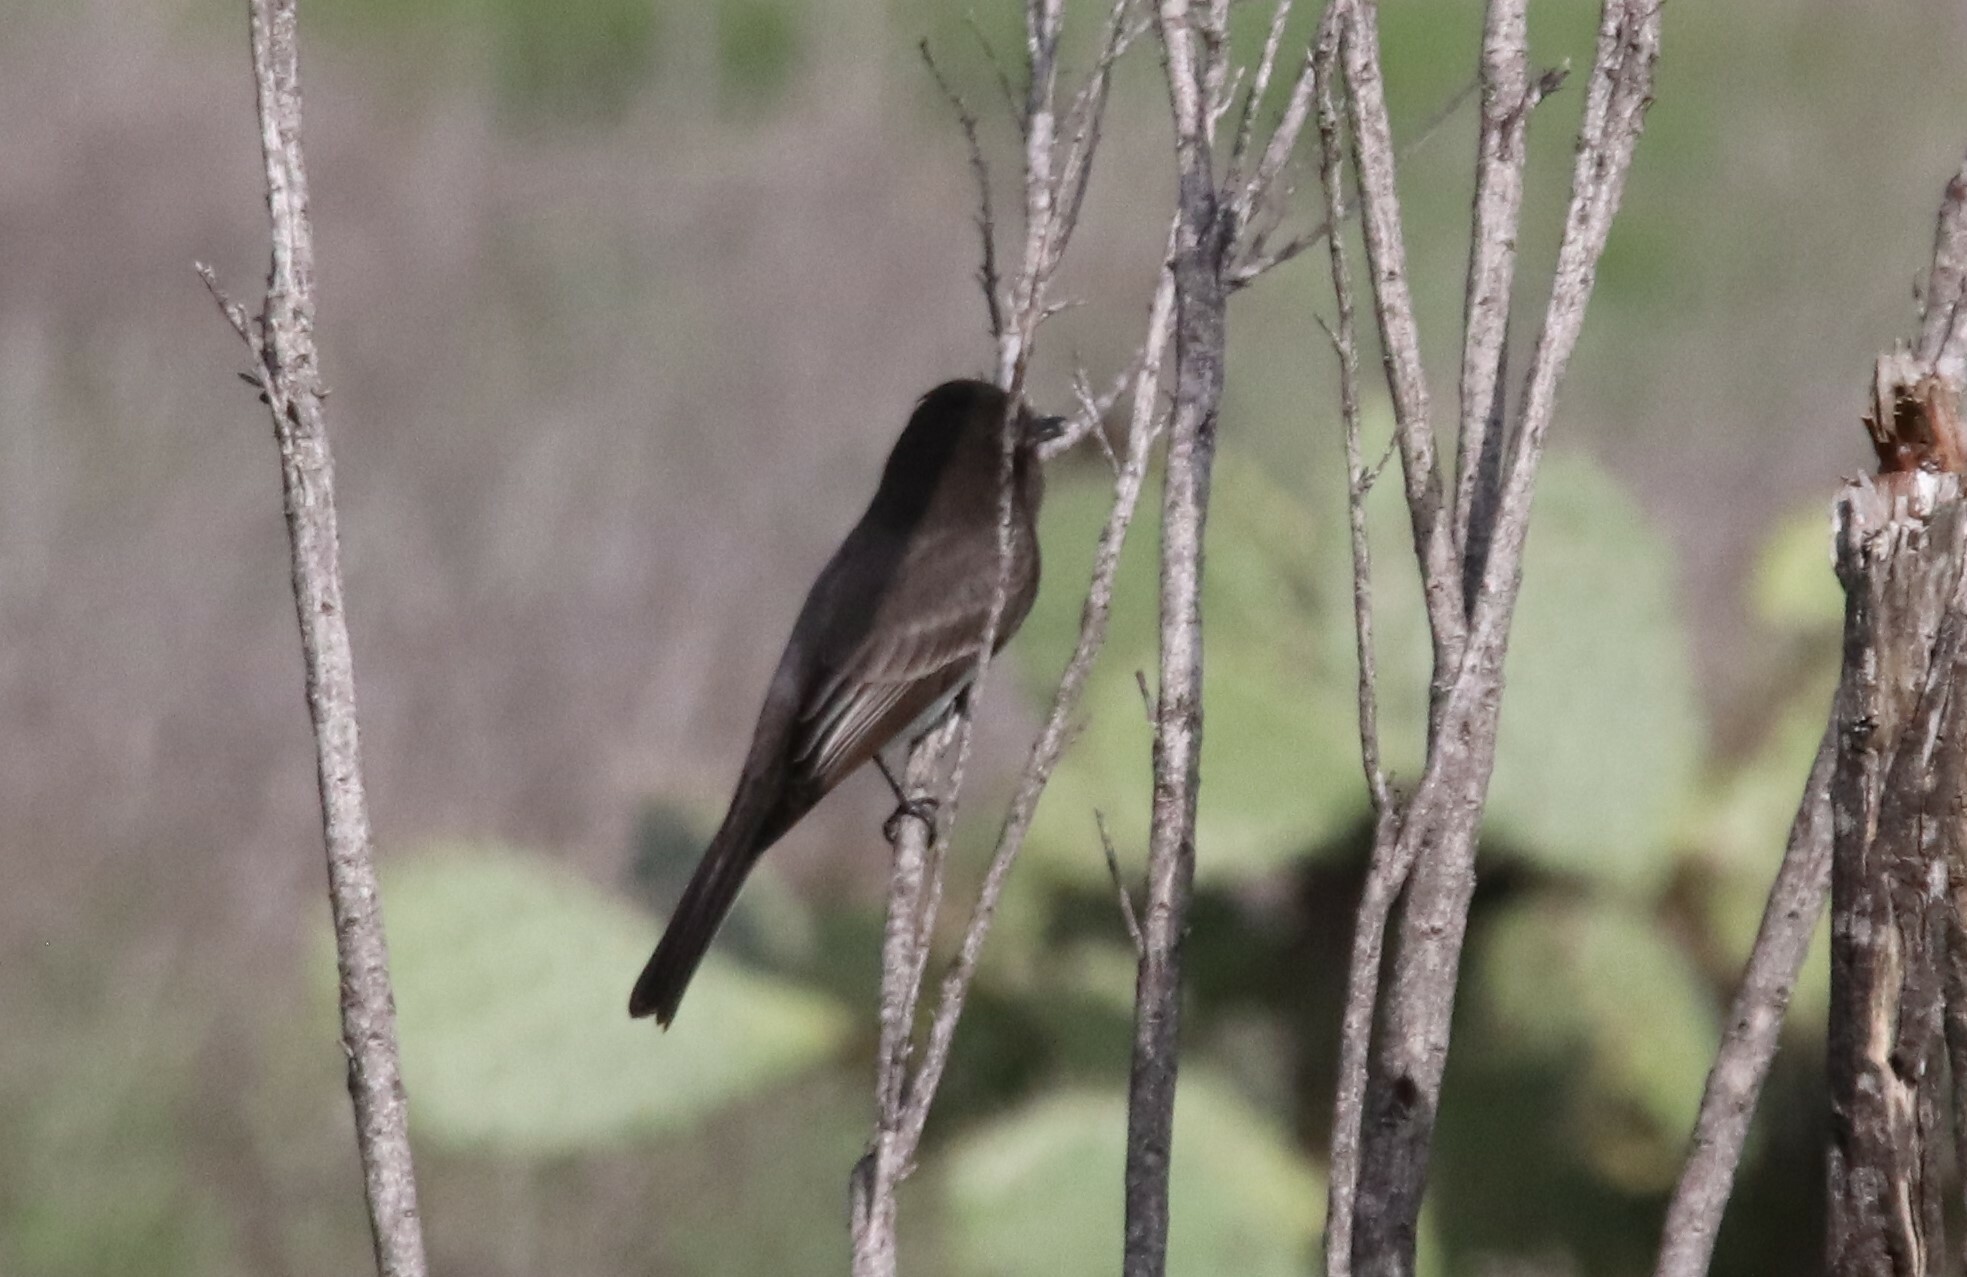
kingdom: Animalia
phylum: Chordata
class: Aves
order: Passeriformes
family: Tyrannidae
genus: Sayornis
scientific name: Sayornis nigricans
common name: Black phoebe
